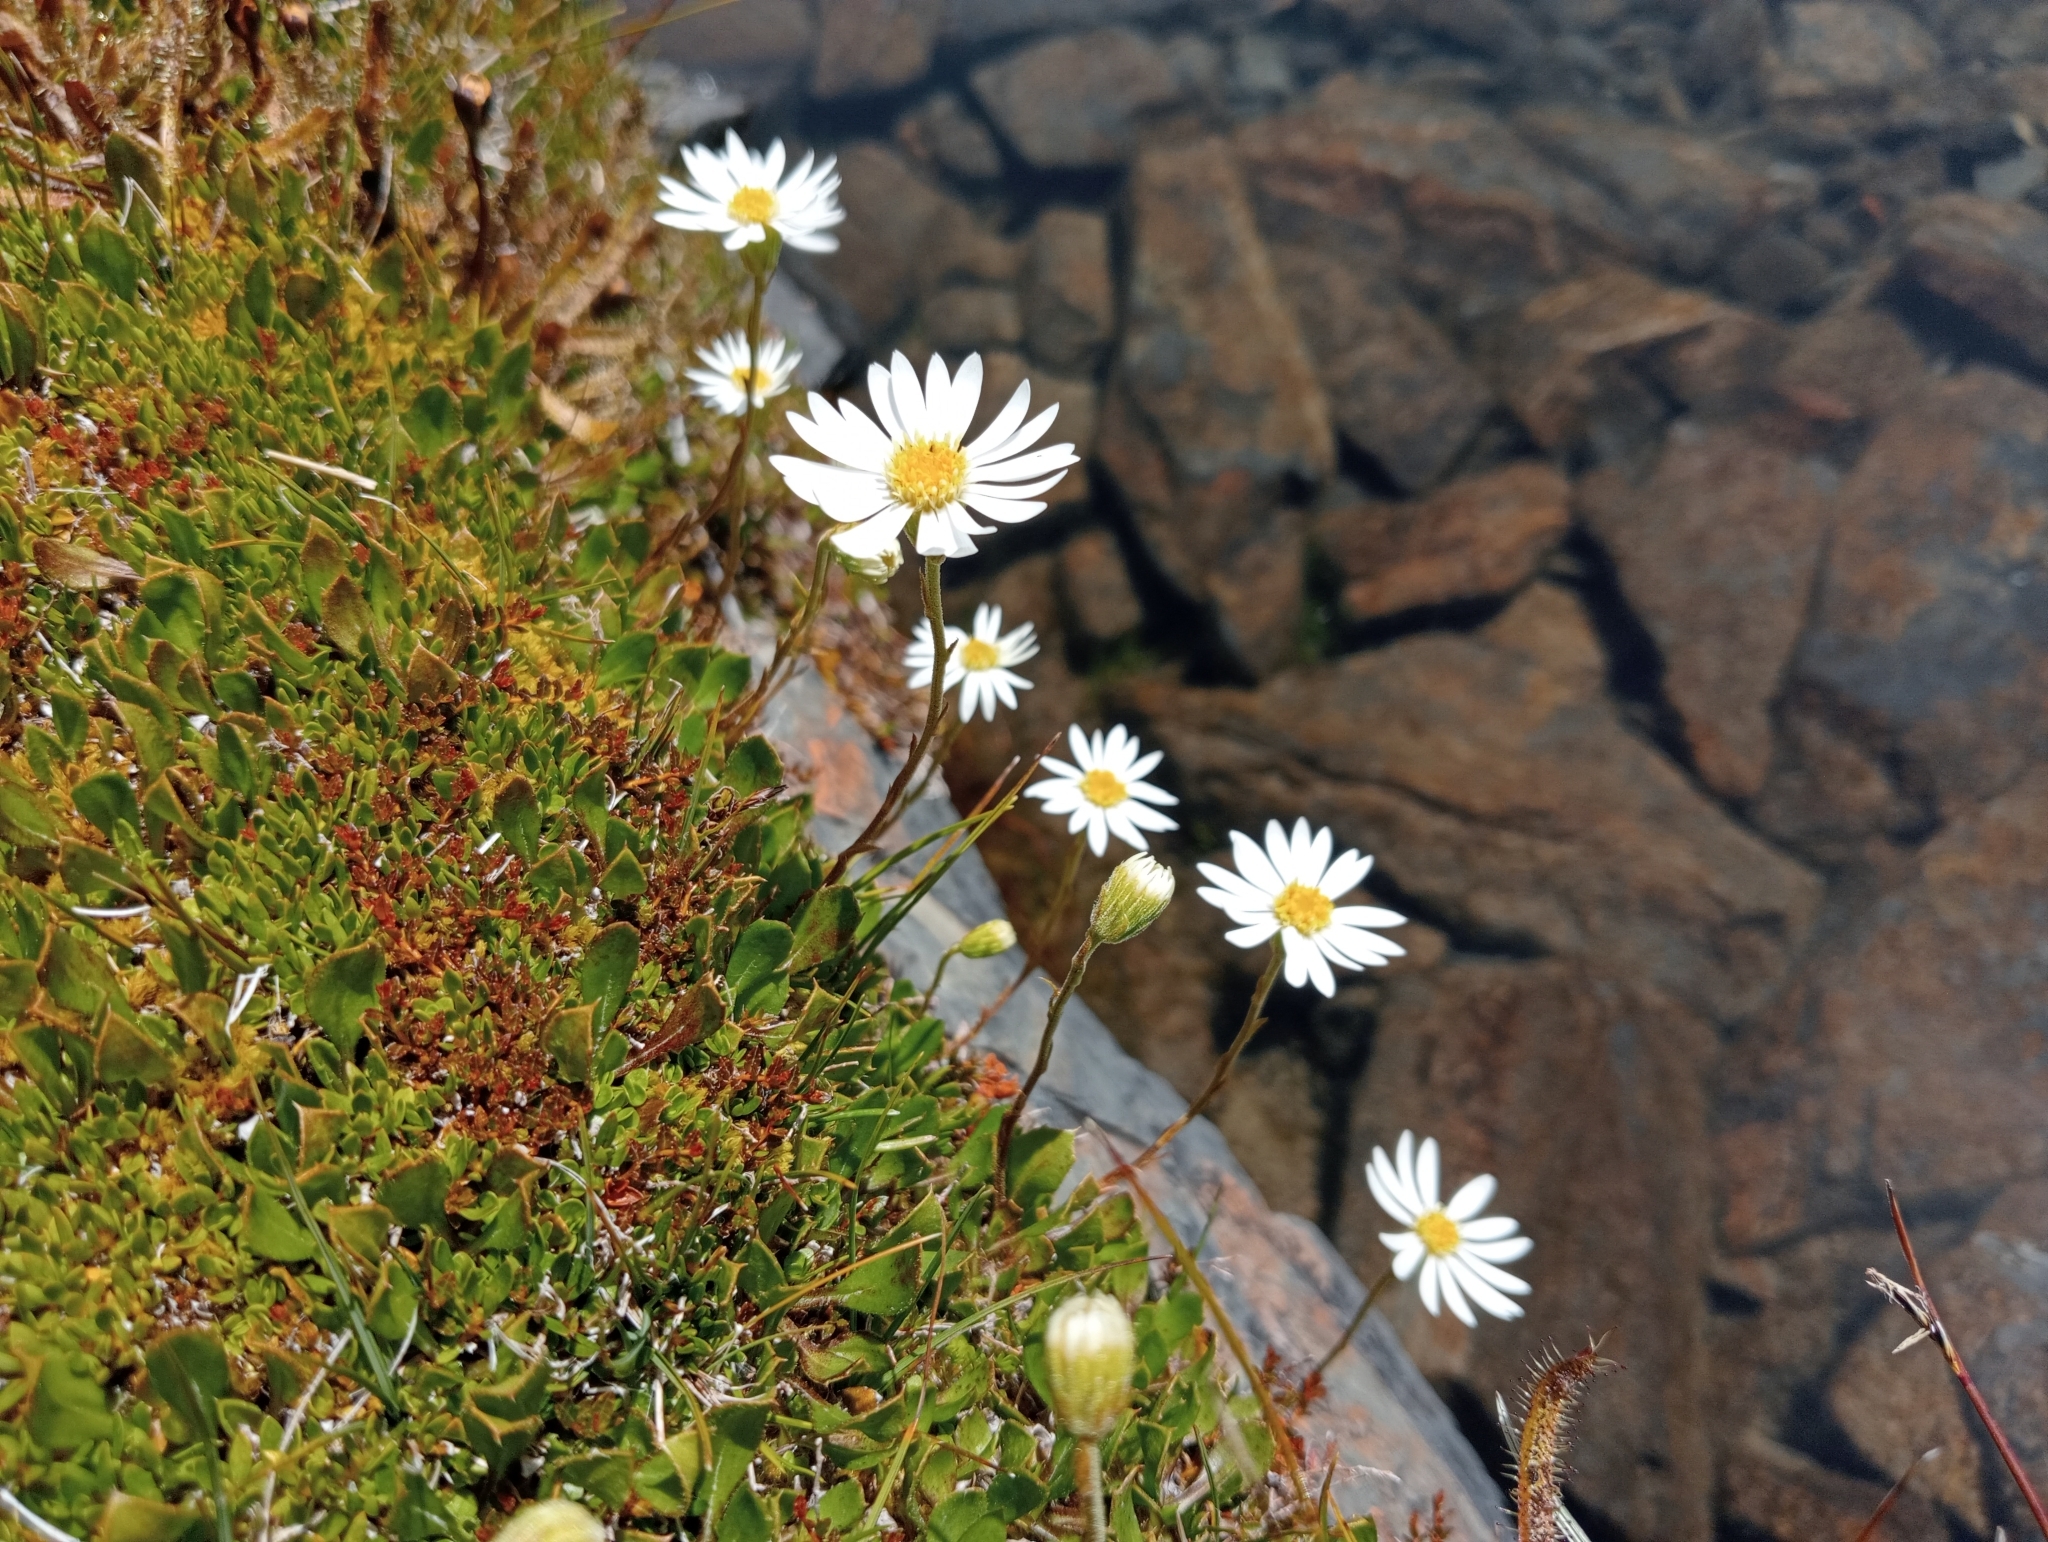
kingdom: Plantae
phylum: Tracheophyta
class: Magnoliopsida
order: Asterales
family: Asteraceae
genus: Celmisia
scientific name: Celmisia glandulosa
